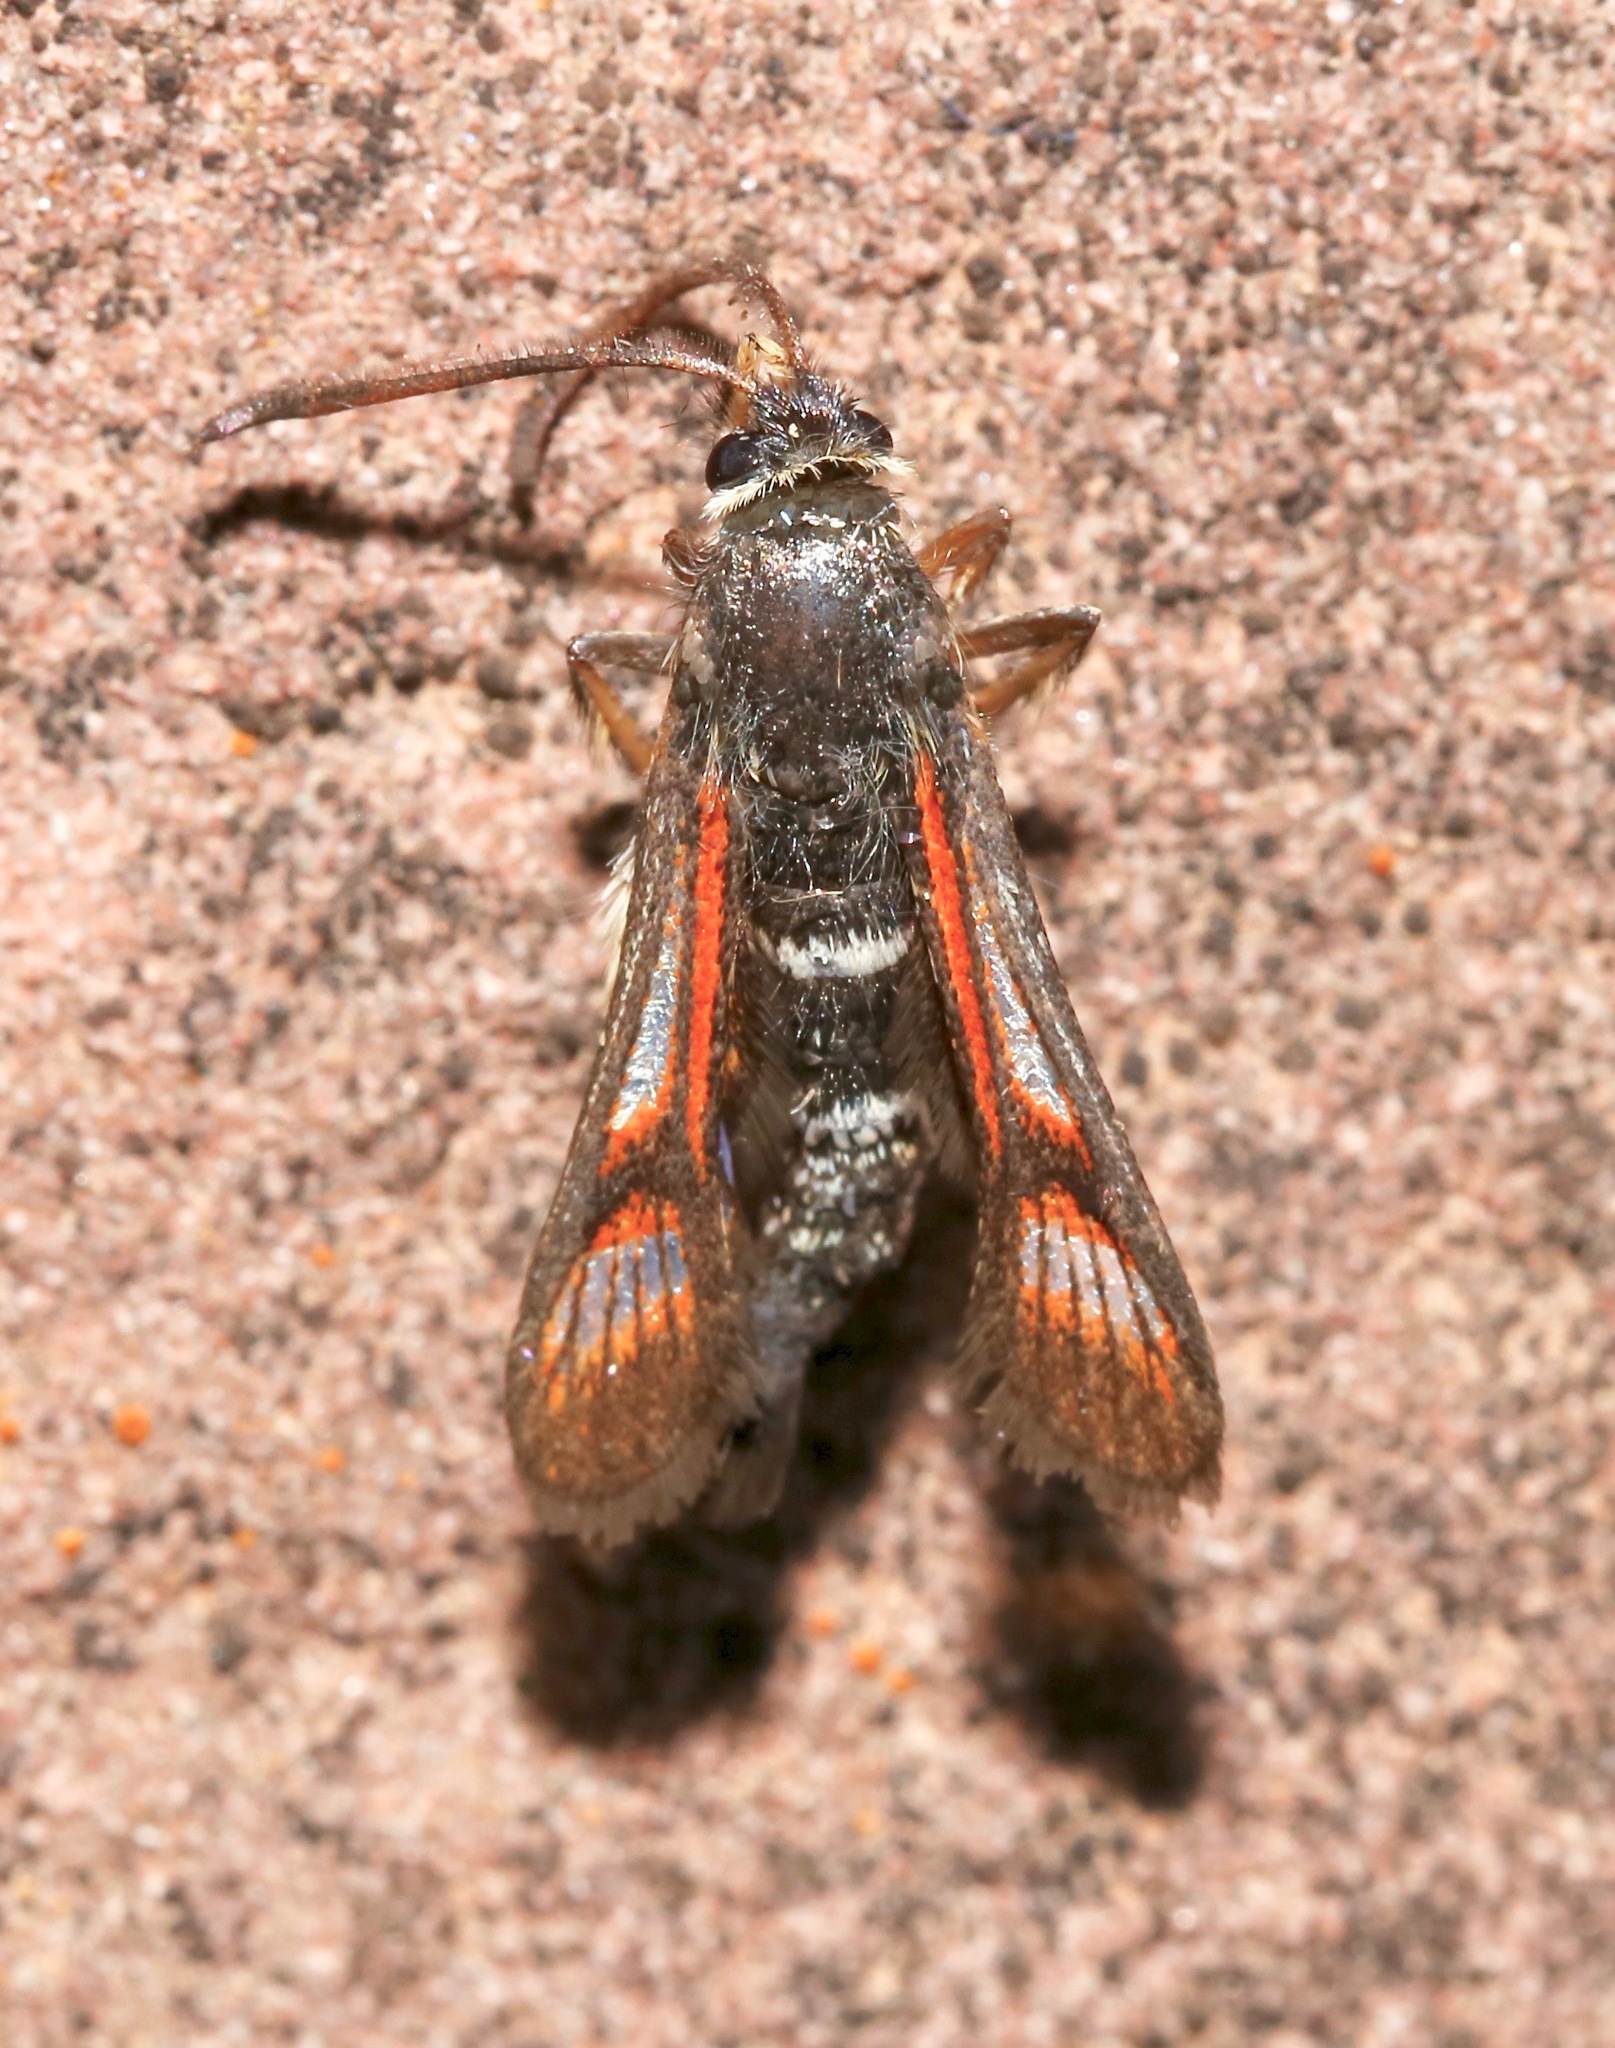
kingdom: Animalia
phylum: Arthropoda
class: Insecta
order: Lepidoptera
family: Sesiidae
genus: Albuna
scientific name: Albuna pyramidalis
